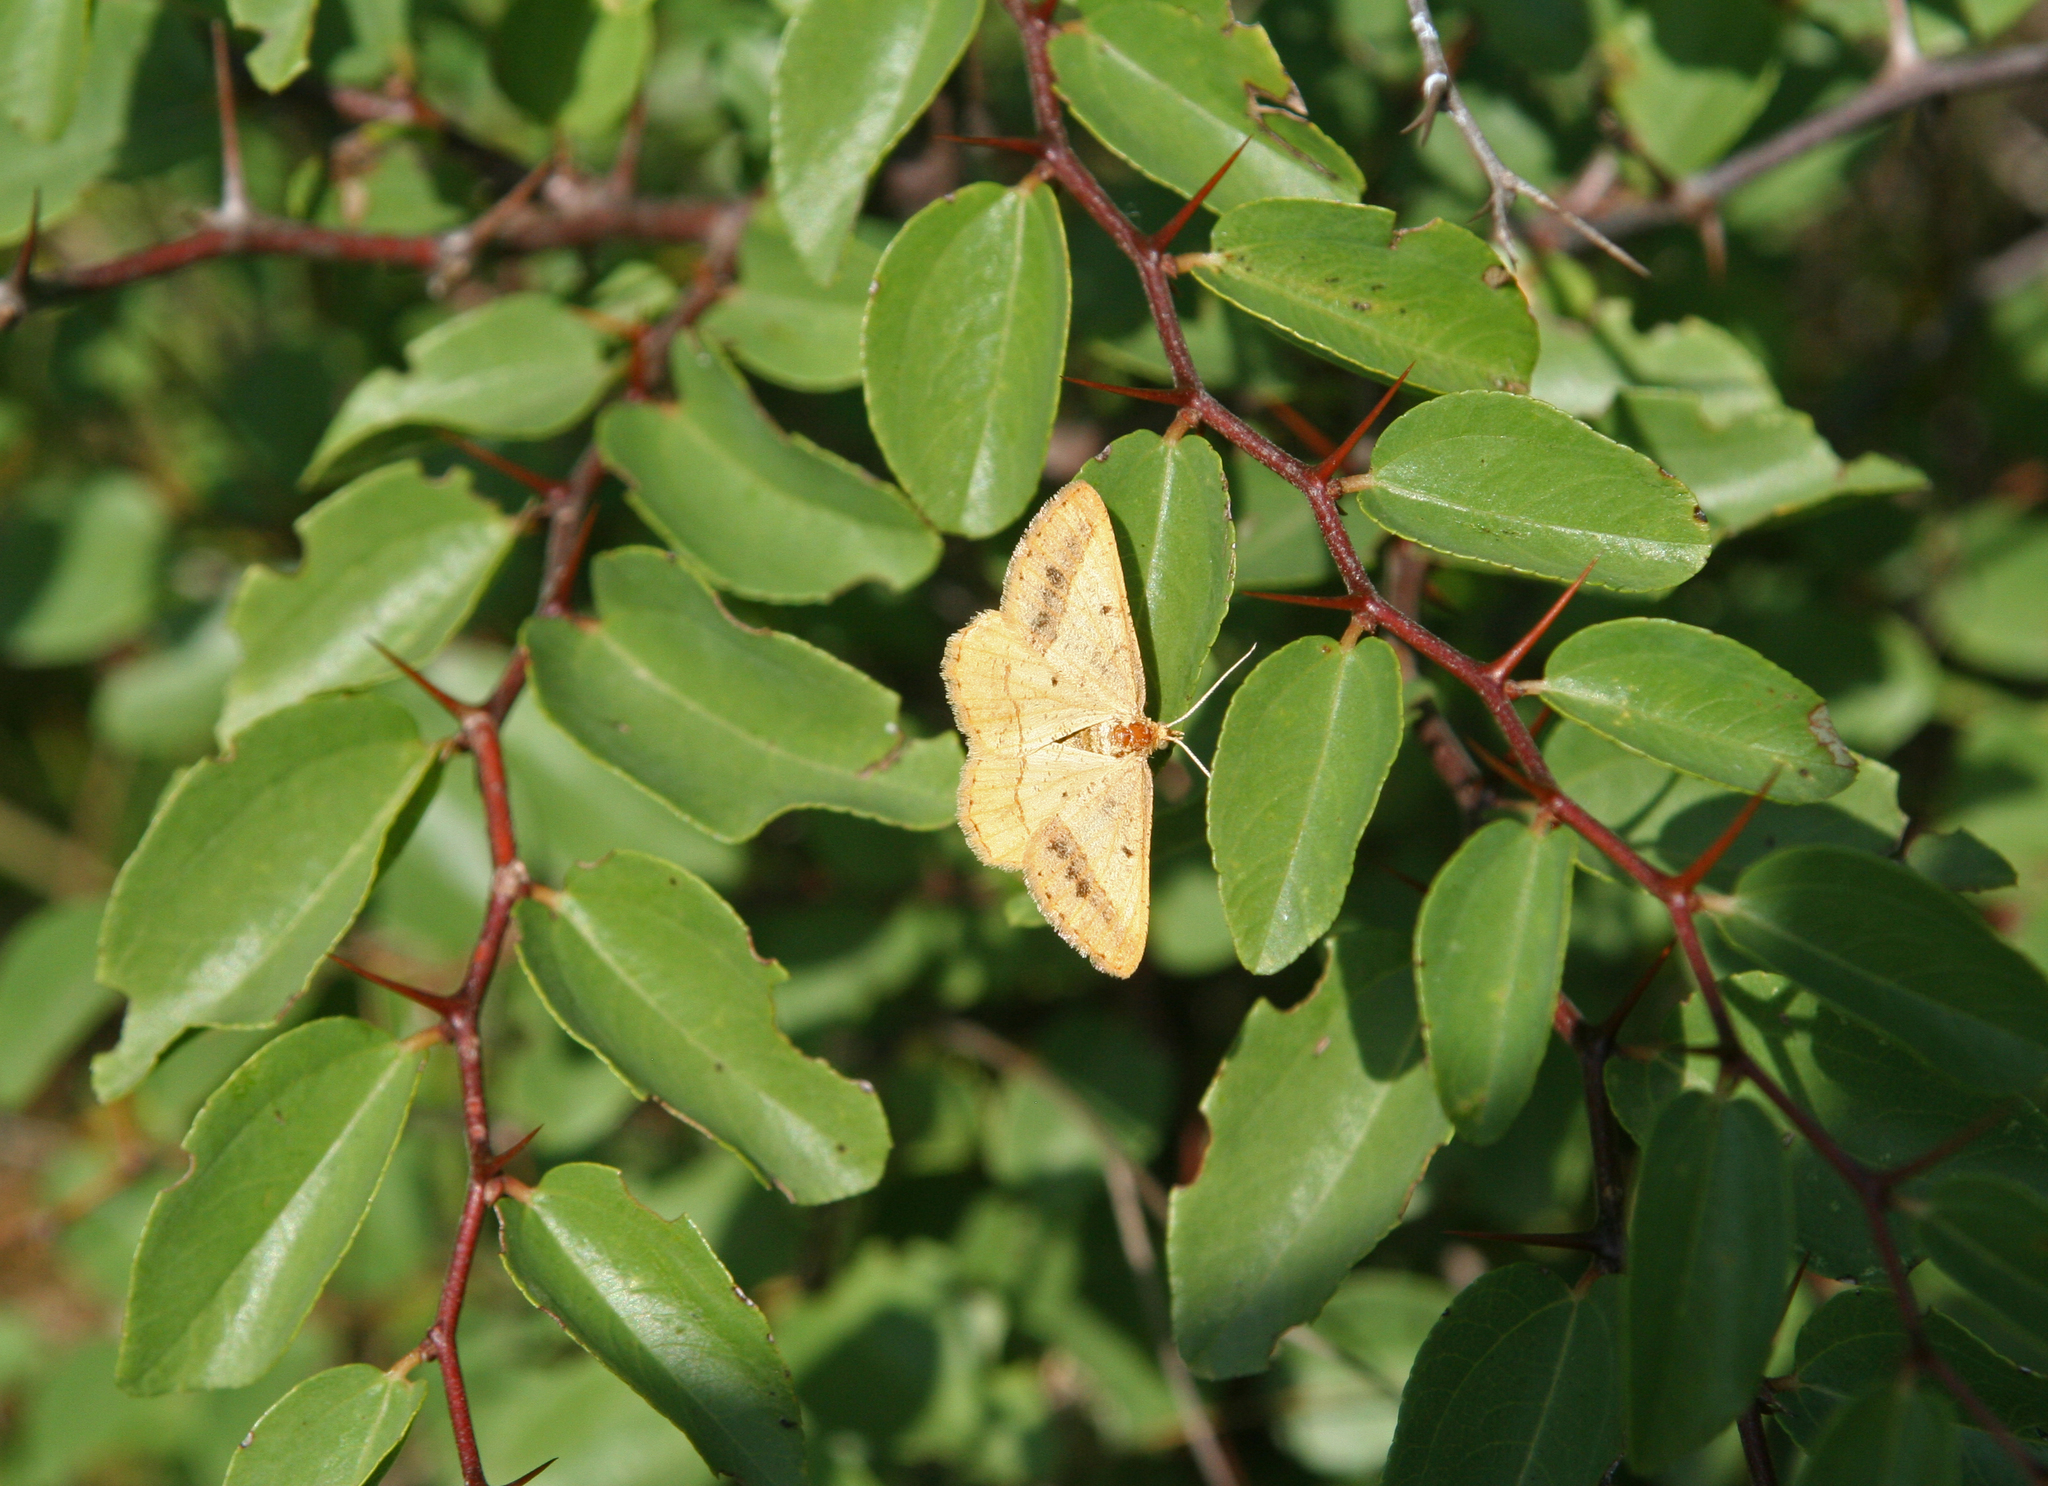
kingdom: Animalia
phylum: Arthropoda
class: Insecta
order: Lepidoptera
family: Geometridae
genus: Tephrina
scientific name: Tephrina arenacearia
